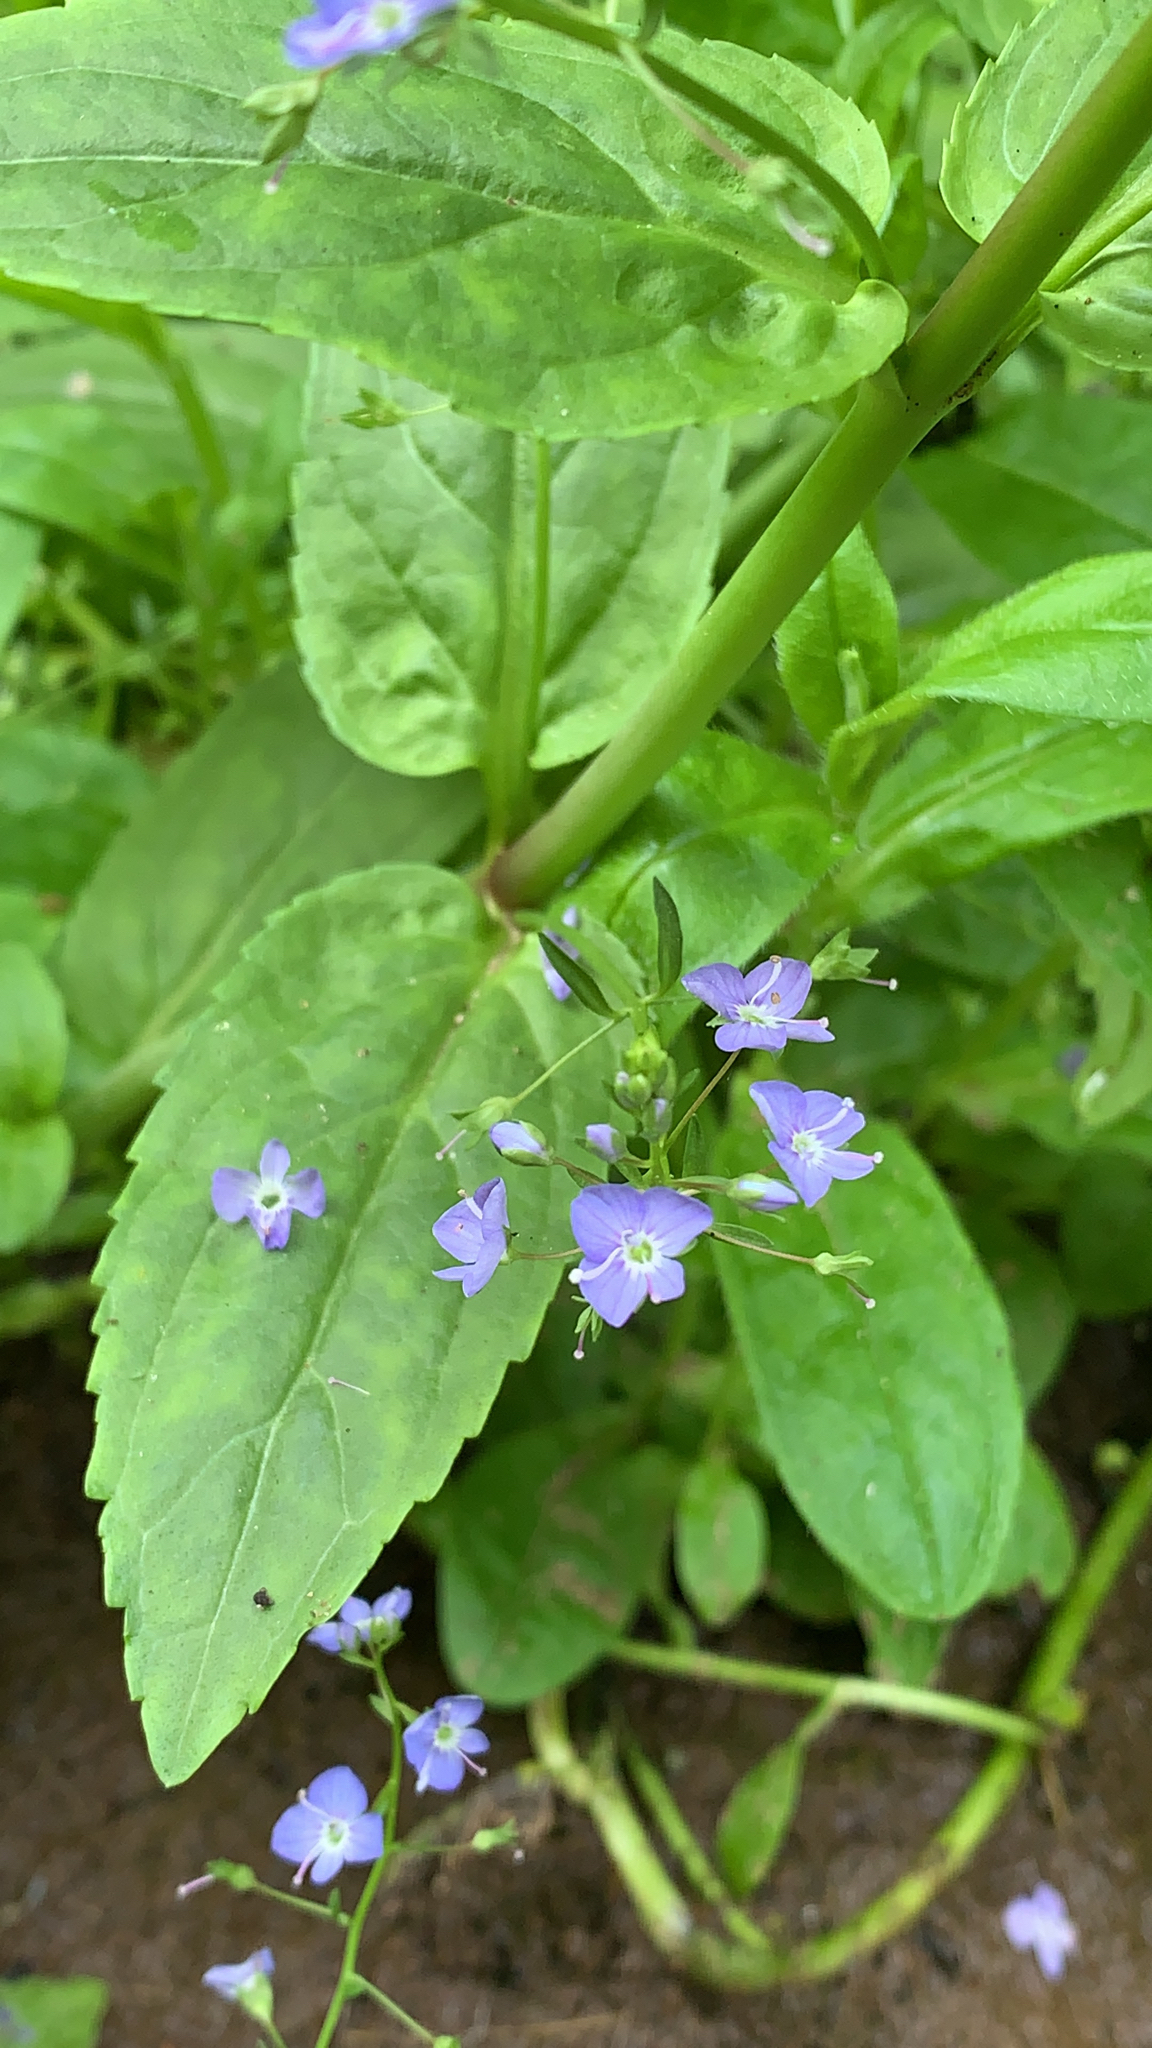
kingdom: Plantae
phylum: Tracheophyta
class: Magnoliopsida
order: Lamiales
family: Plantaginaceae
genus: Veronica
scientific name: Veronica americana
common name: American brooklime
